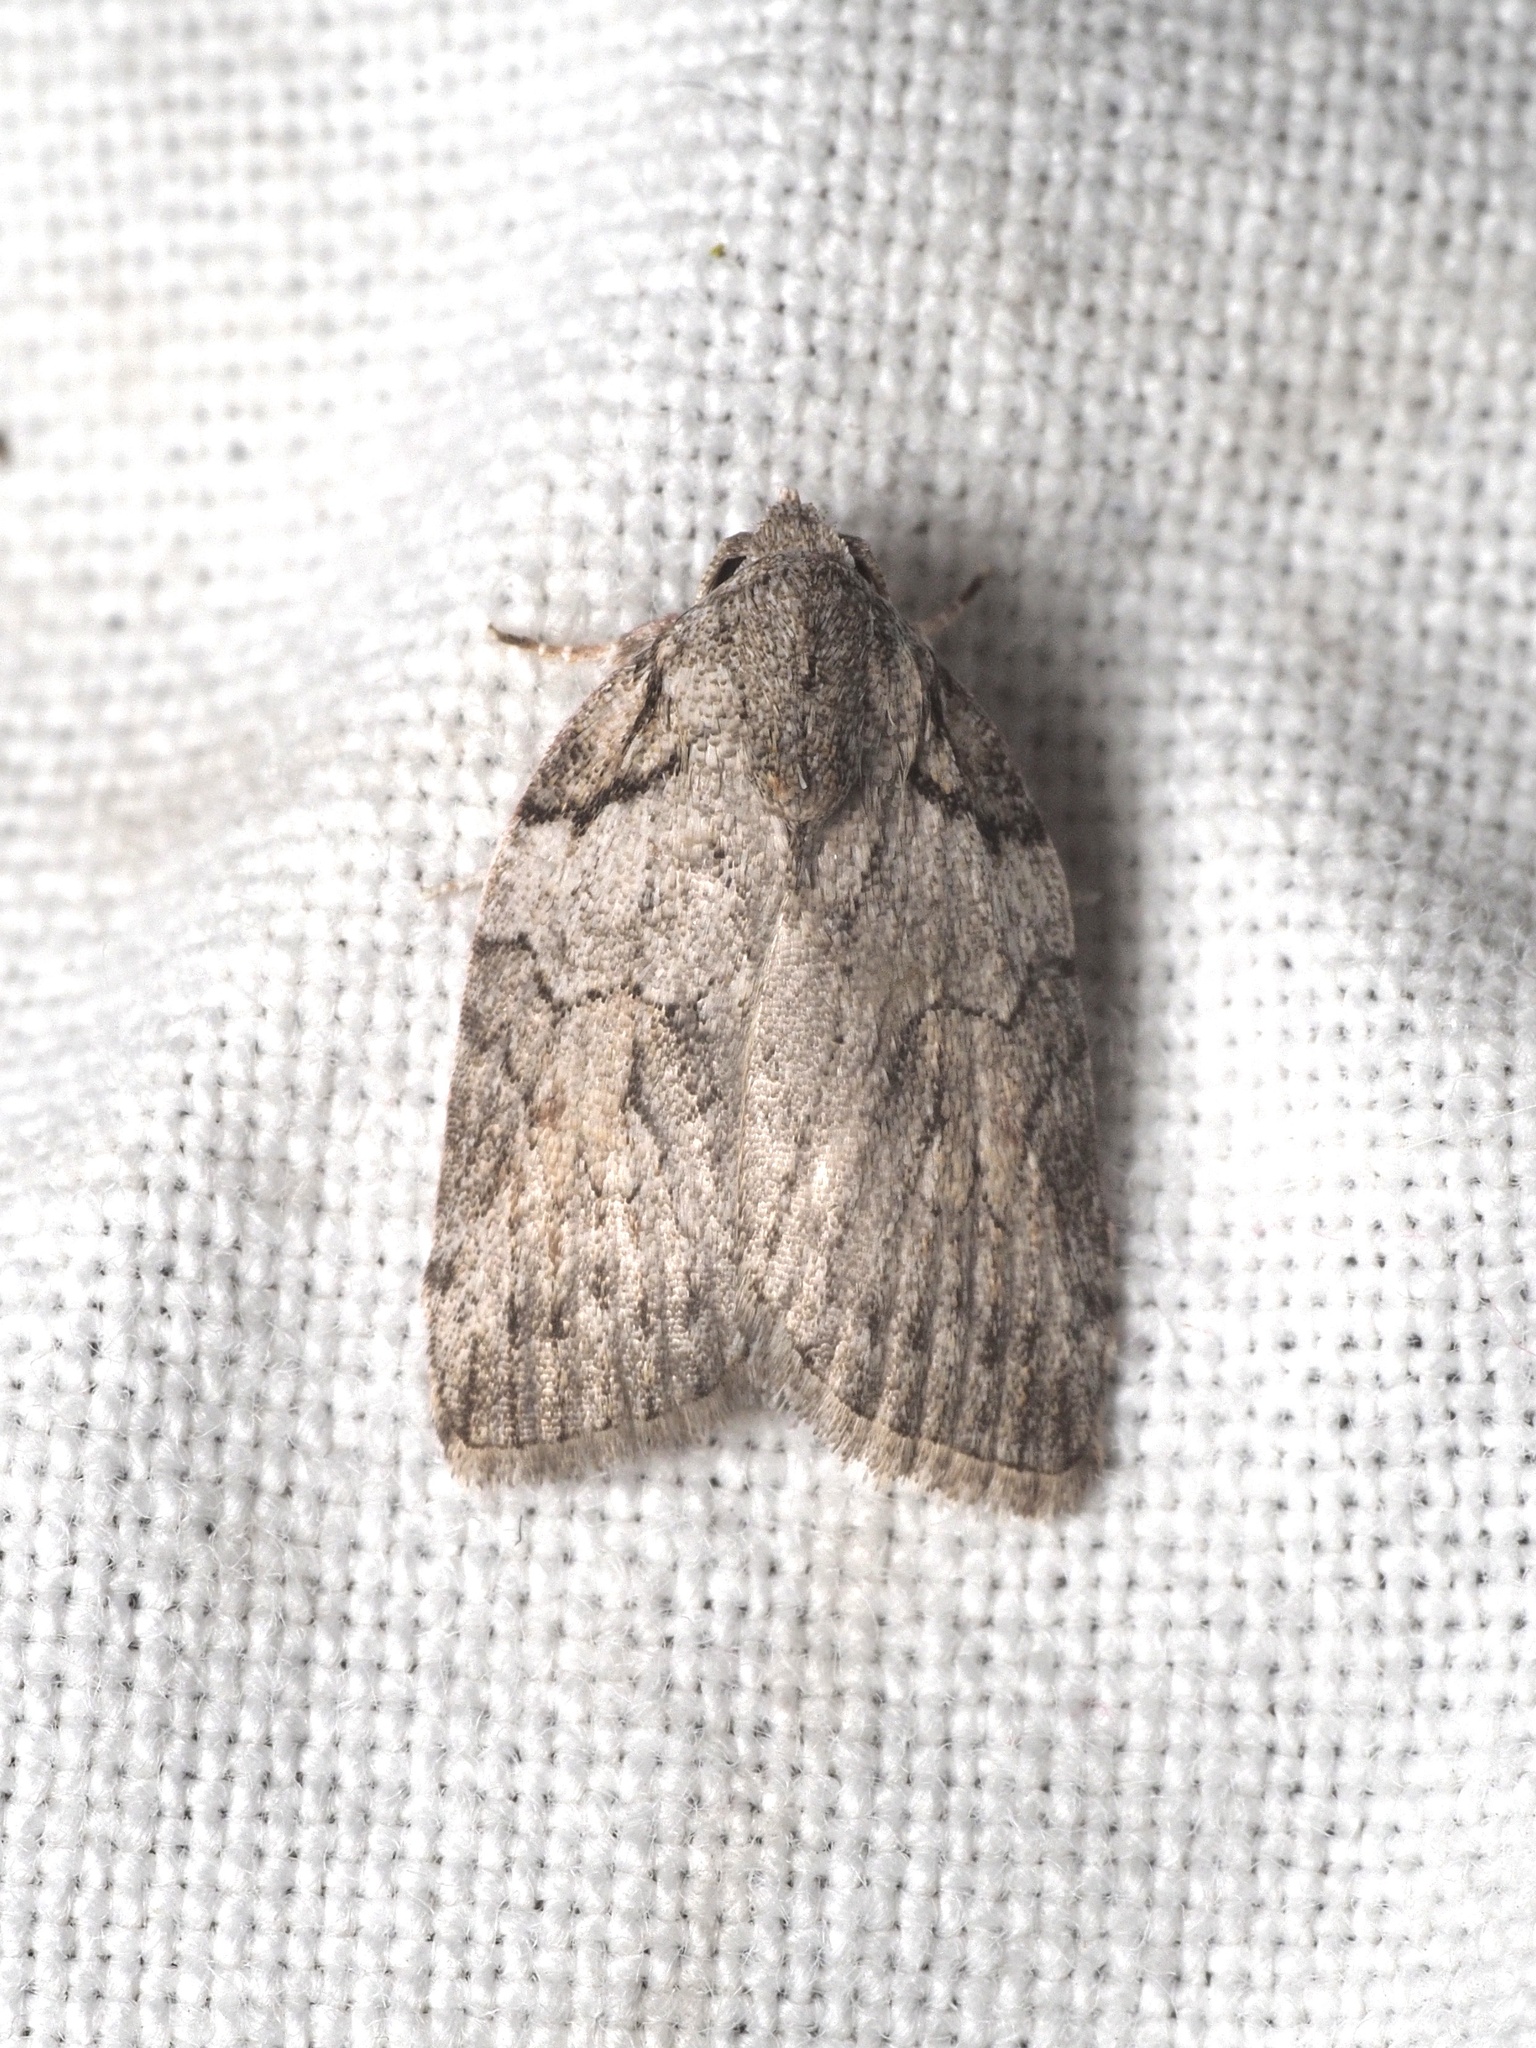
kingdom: Animalia
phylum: Arthropoda
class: Insecta
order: Lepidoptera
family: Nolidae
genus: Pardasena
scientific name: Pardasena virgulana
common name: Grey square
